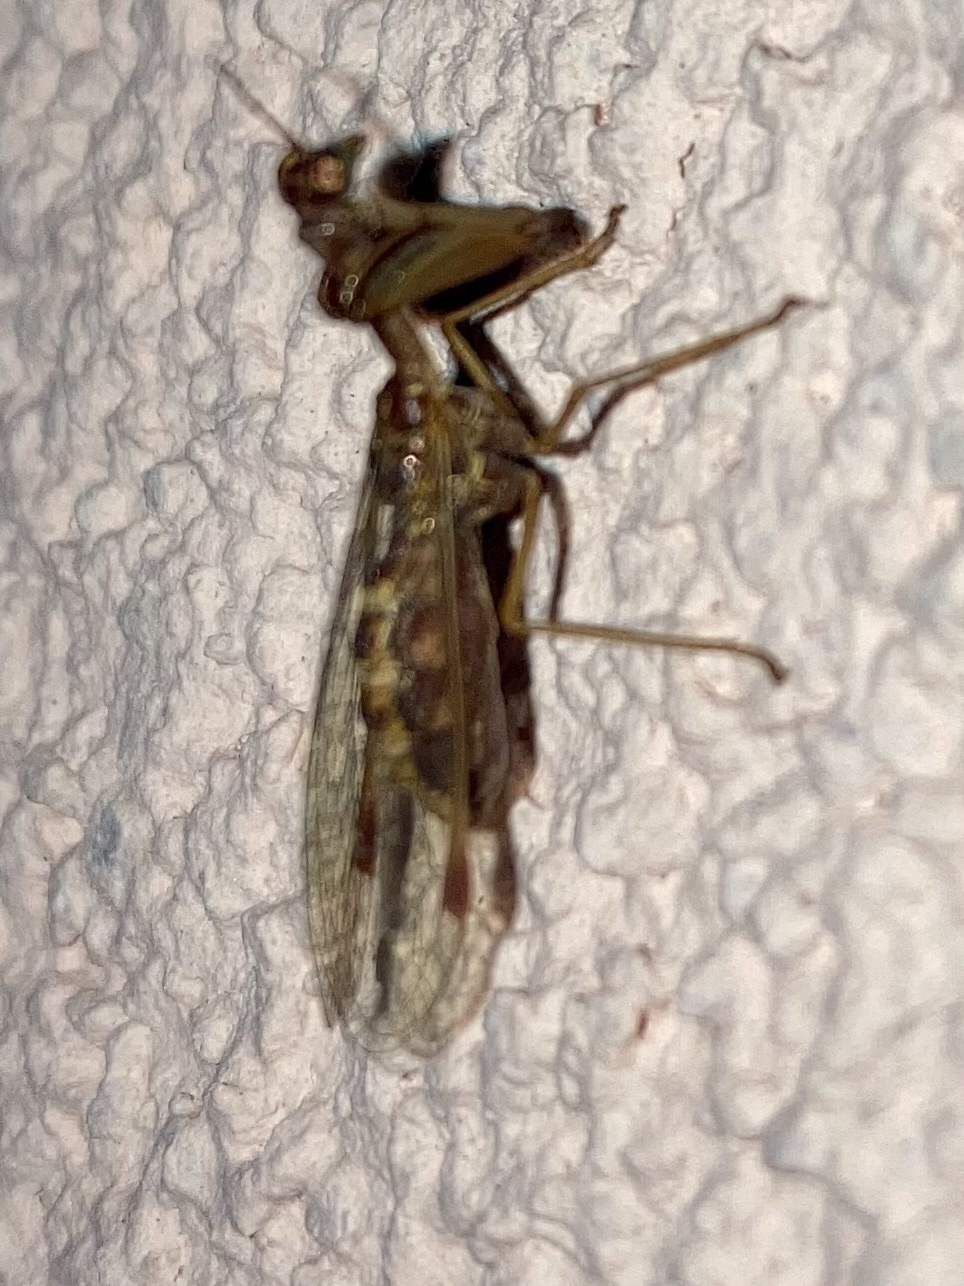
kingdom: Animalia
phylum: Arthropoda
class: Insecta
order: Neuroptera
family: Mantispidae
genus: Mantispa
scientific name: Mantispa styriaca
